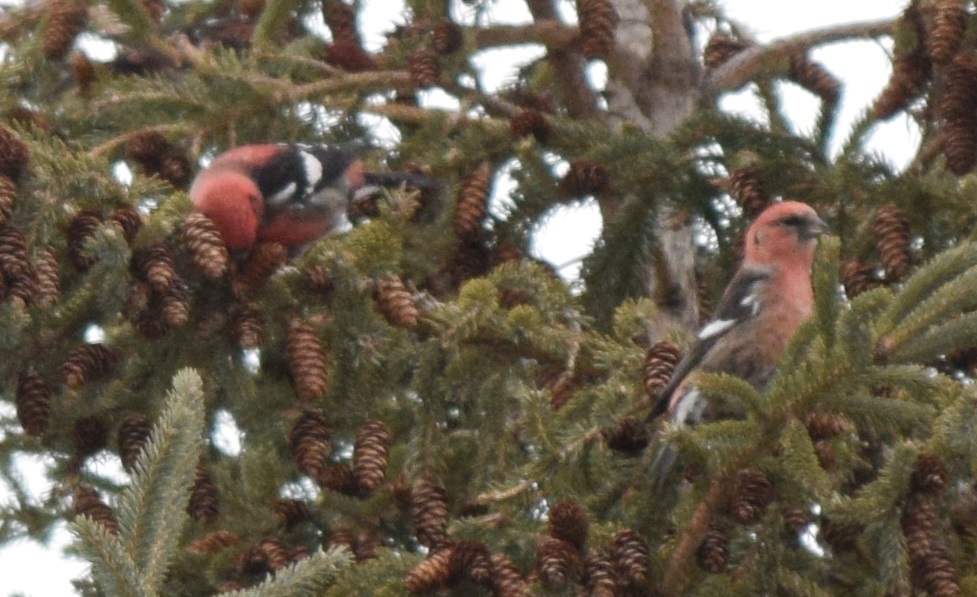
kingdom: Animalia
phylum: Chordata
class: Aves
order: Passeriformes
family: Fringillidae
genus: Loxia
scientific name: Loxia leucoptera
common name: Two-barred crossbill
